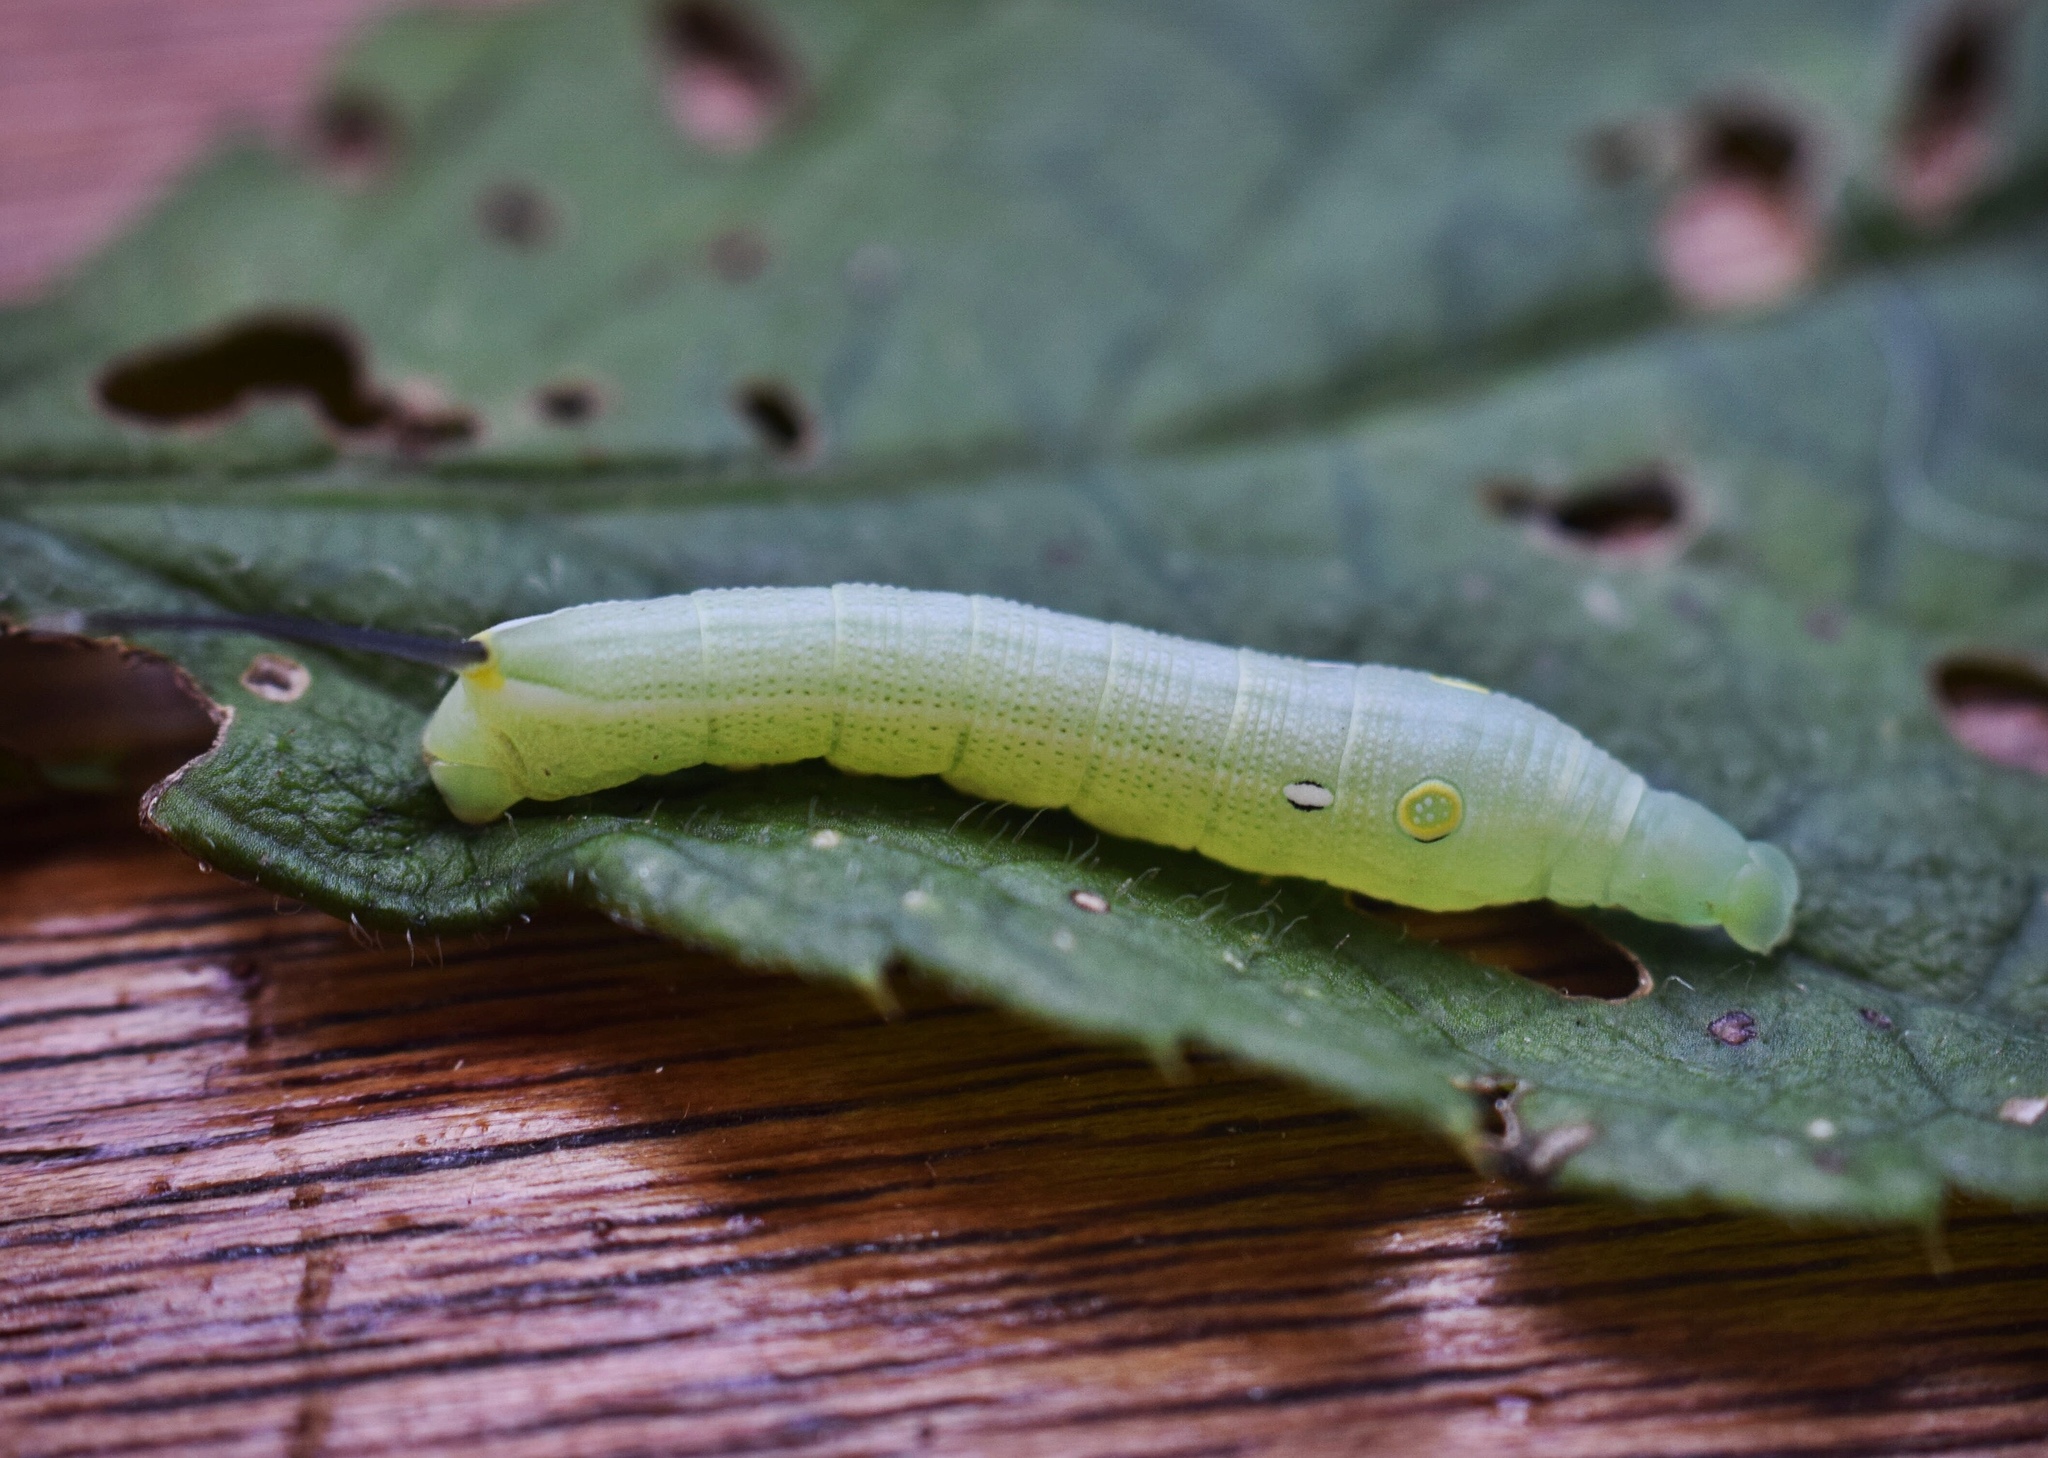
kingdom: Animalia
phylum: Arthropoda
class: Insecta
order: Lepidoptera
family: Sphingidae
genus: Hippotion
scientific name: Hippotion eson
